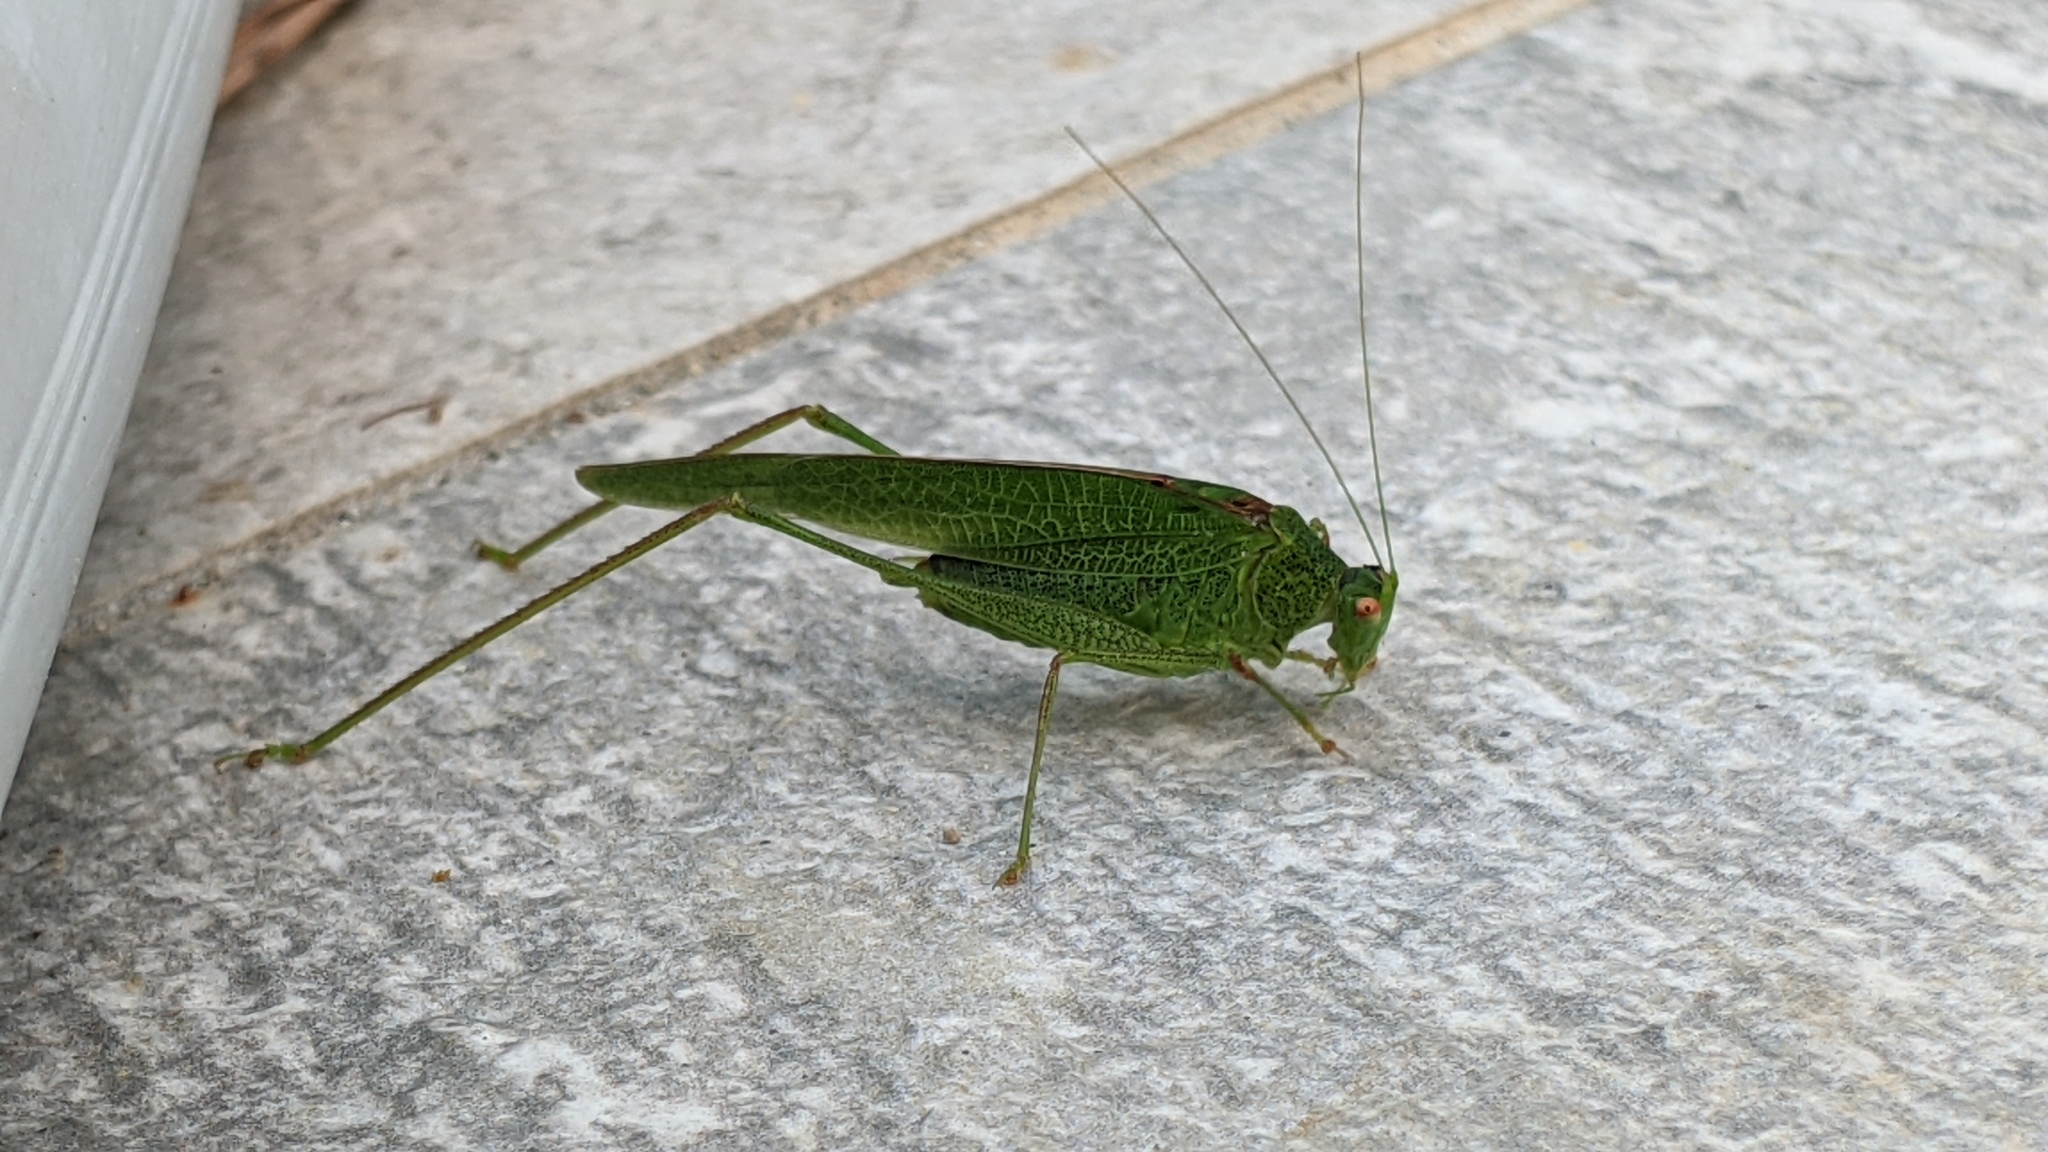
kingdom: Animalia
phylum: Arthropoda
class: Insecta
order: Orthoptera
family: Tettigoniidae
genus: Phaneroptera
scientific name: Phaneroptera nana
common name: Southern sickle bush-cricket
